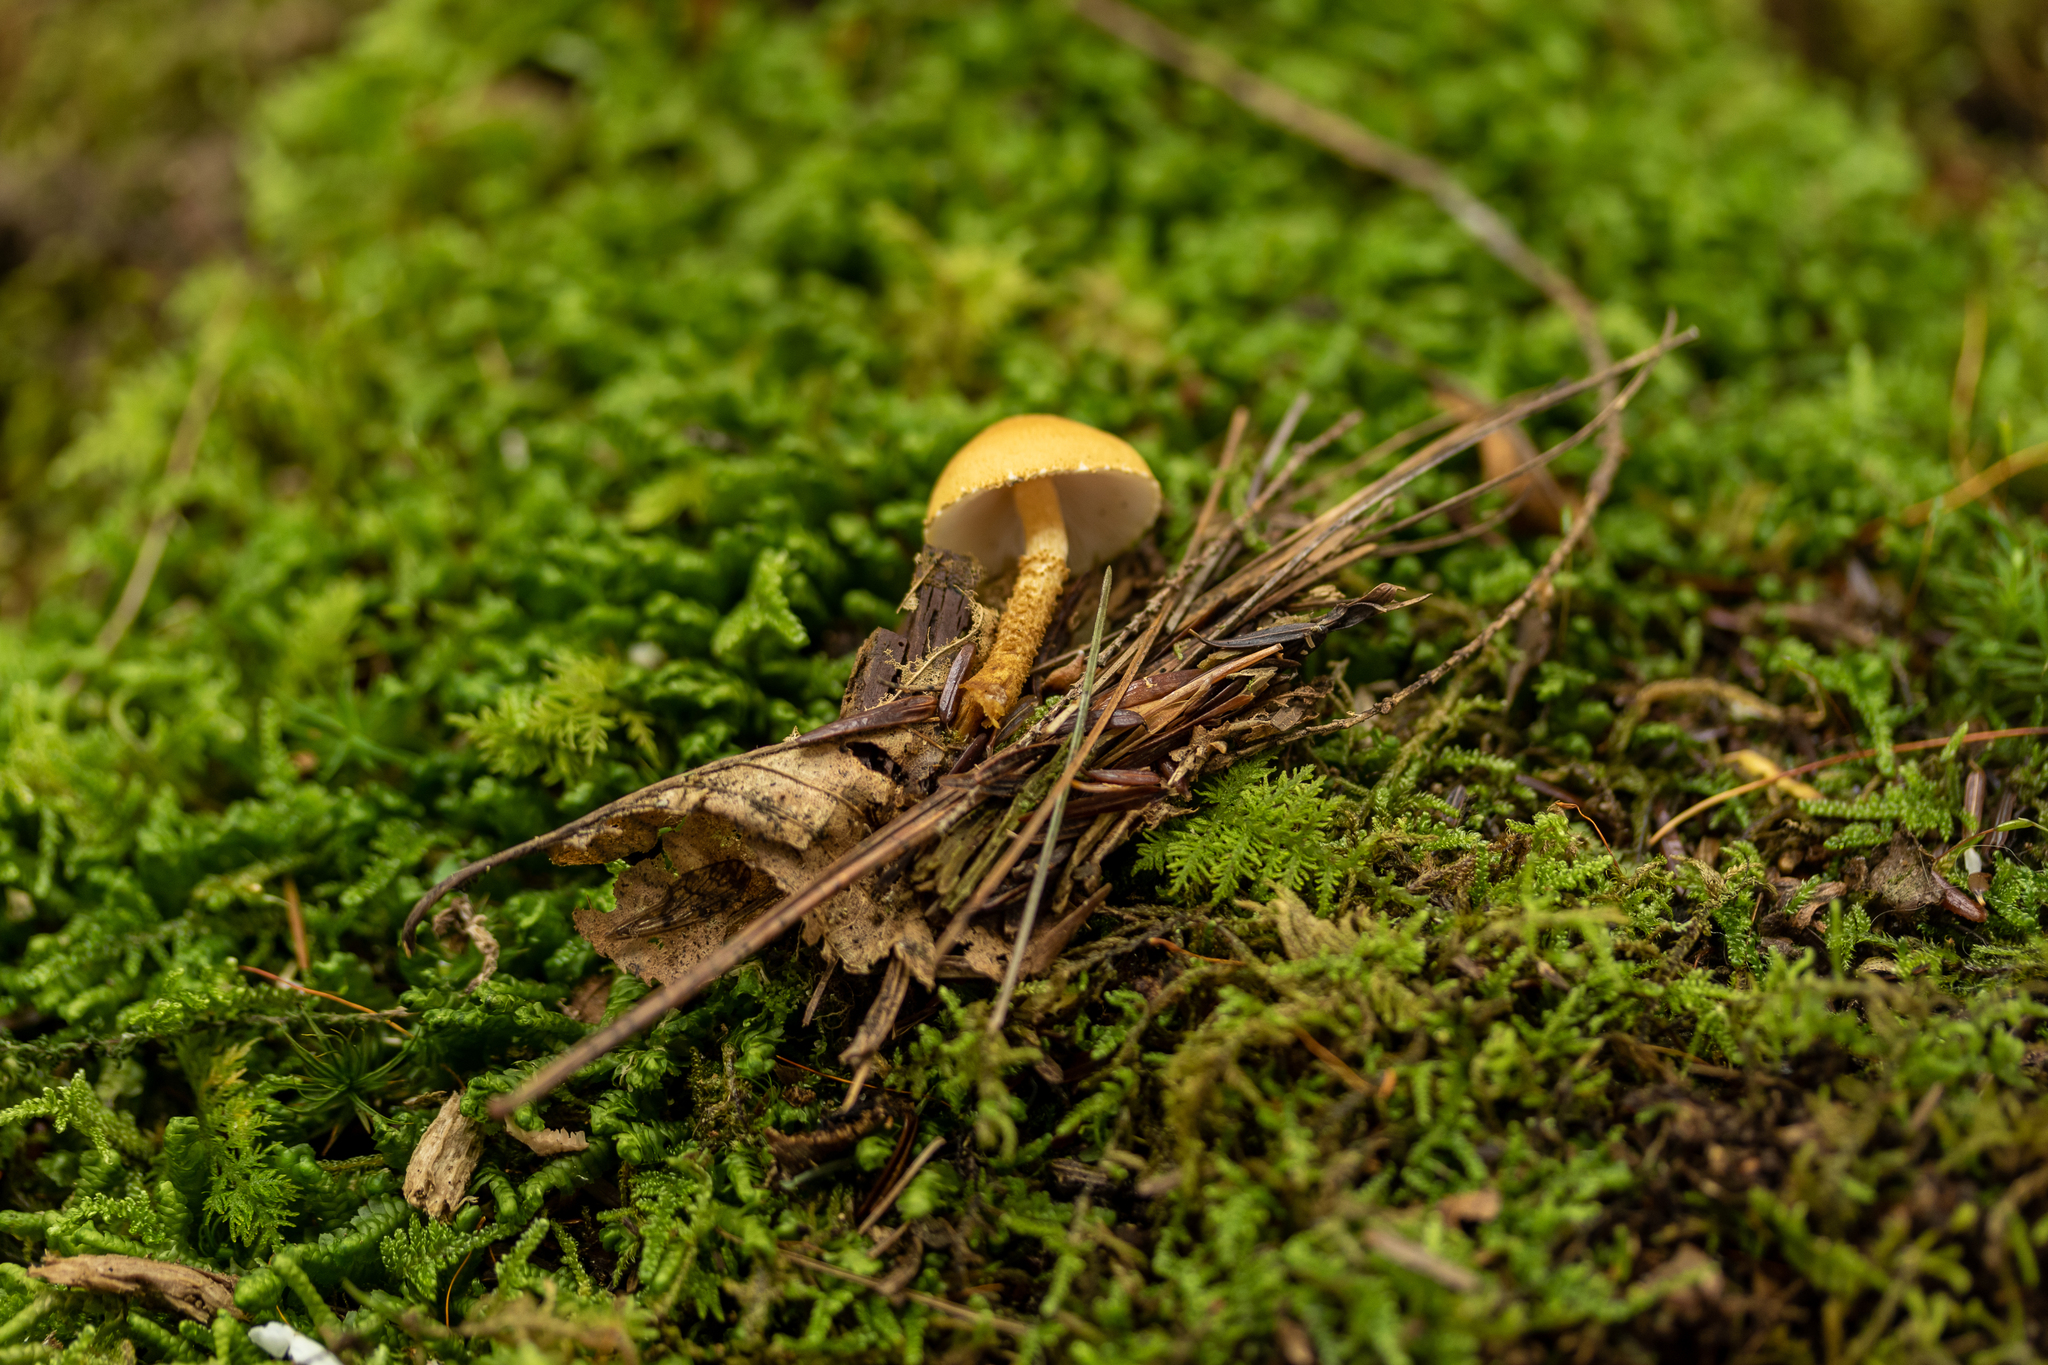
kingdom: Fungi
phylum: Basidiomycota
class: Agaricomycetes
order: Agaricales
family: Tricholomataceae
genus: Cystoderma
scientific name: Cystoderma amianthinum
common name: Earthy powdercap
